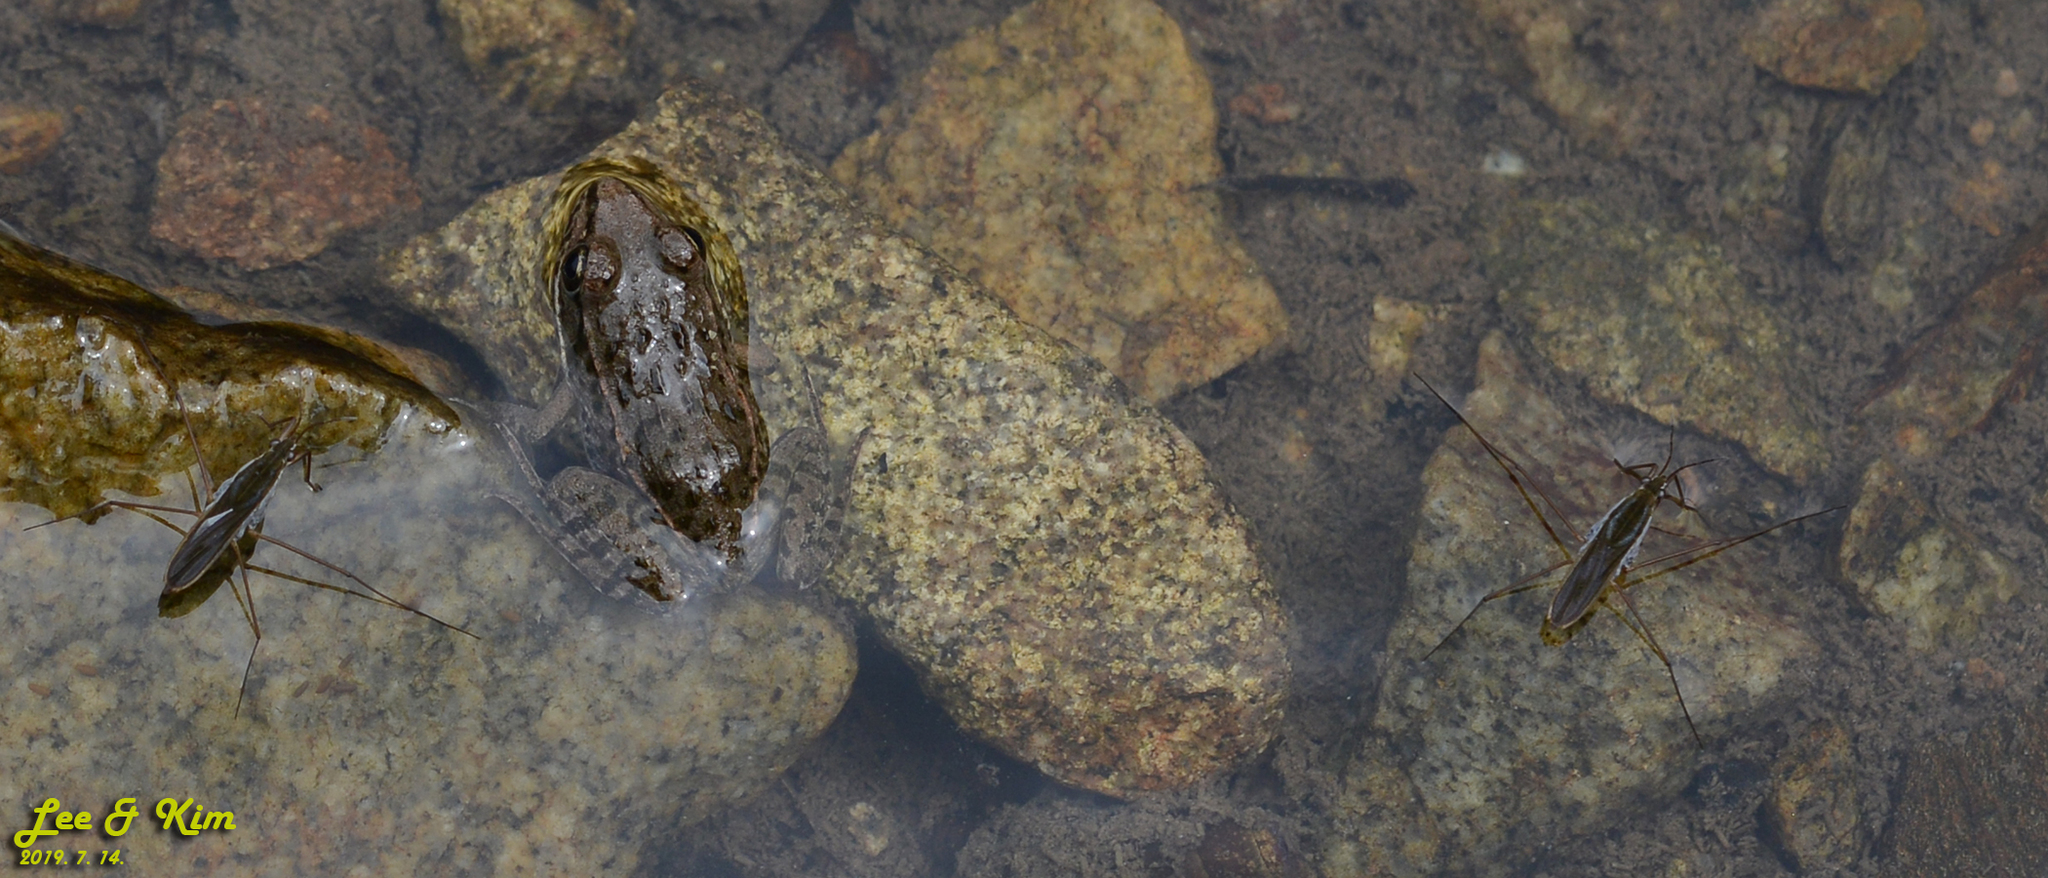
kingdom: Animalia
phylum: Chordata
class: Amphibia
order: Anura
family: Ranidae
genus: Pelophylax
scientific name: Pelophylax nigromaculatus
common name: Black-spotted pond frog
